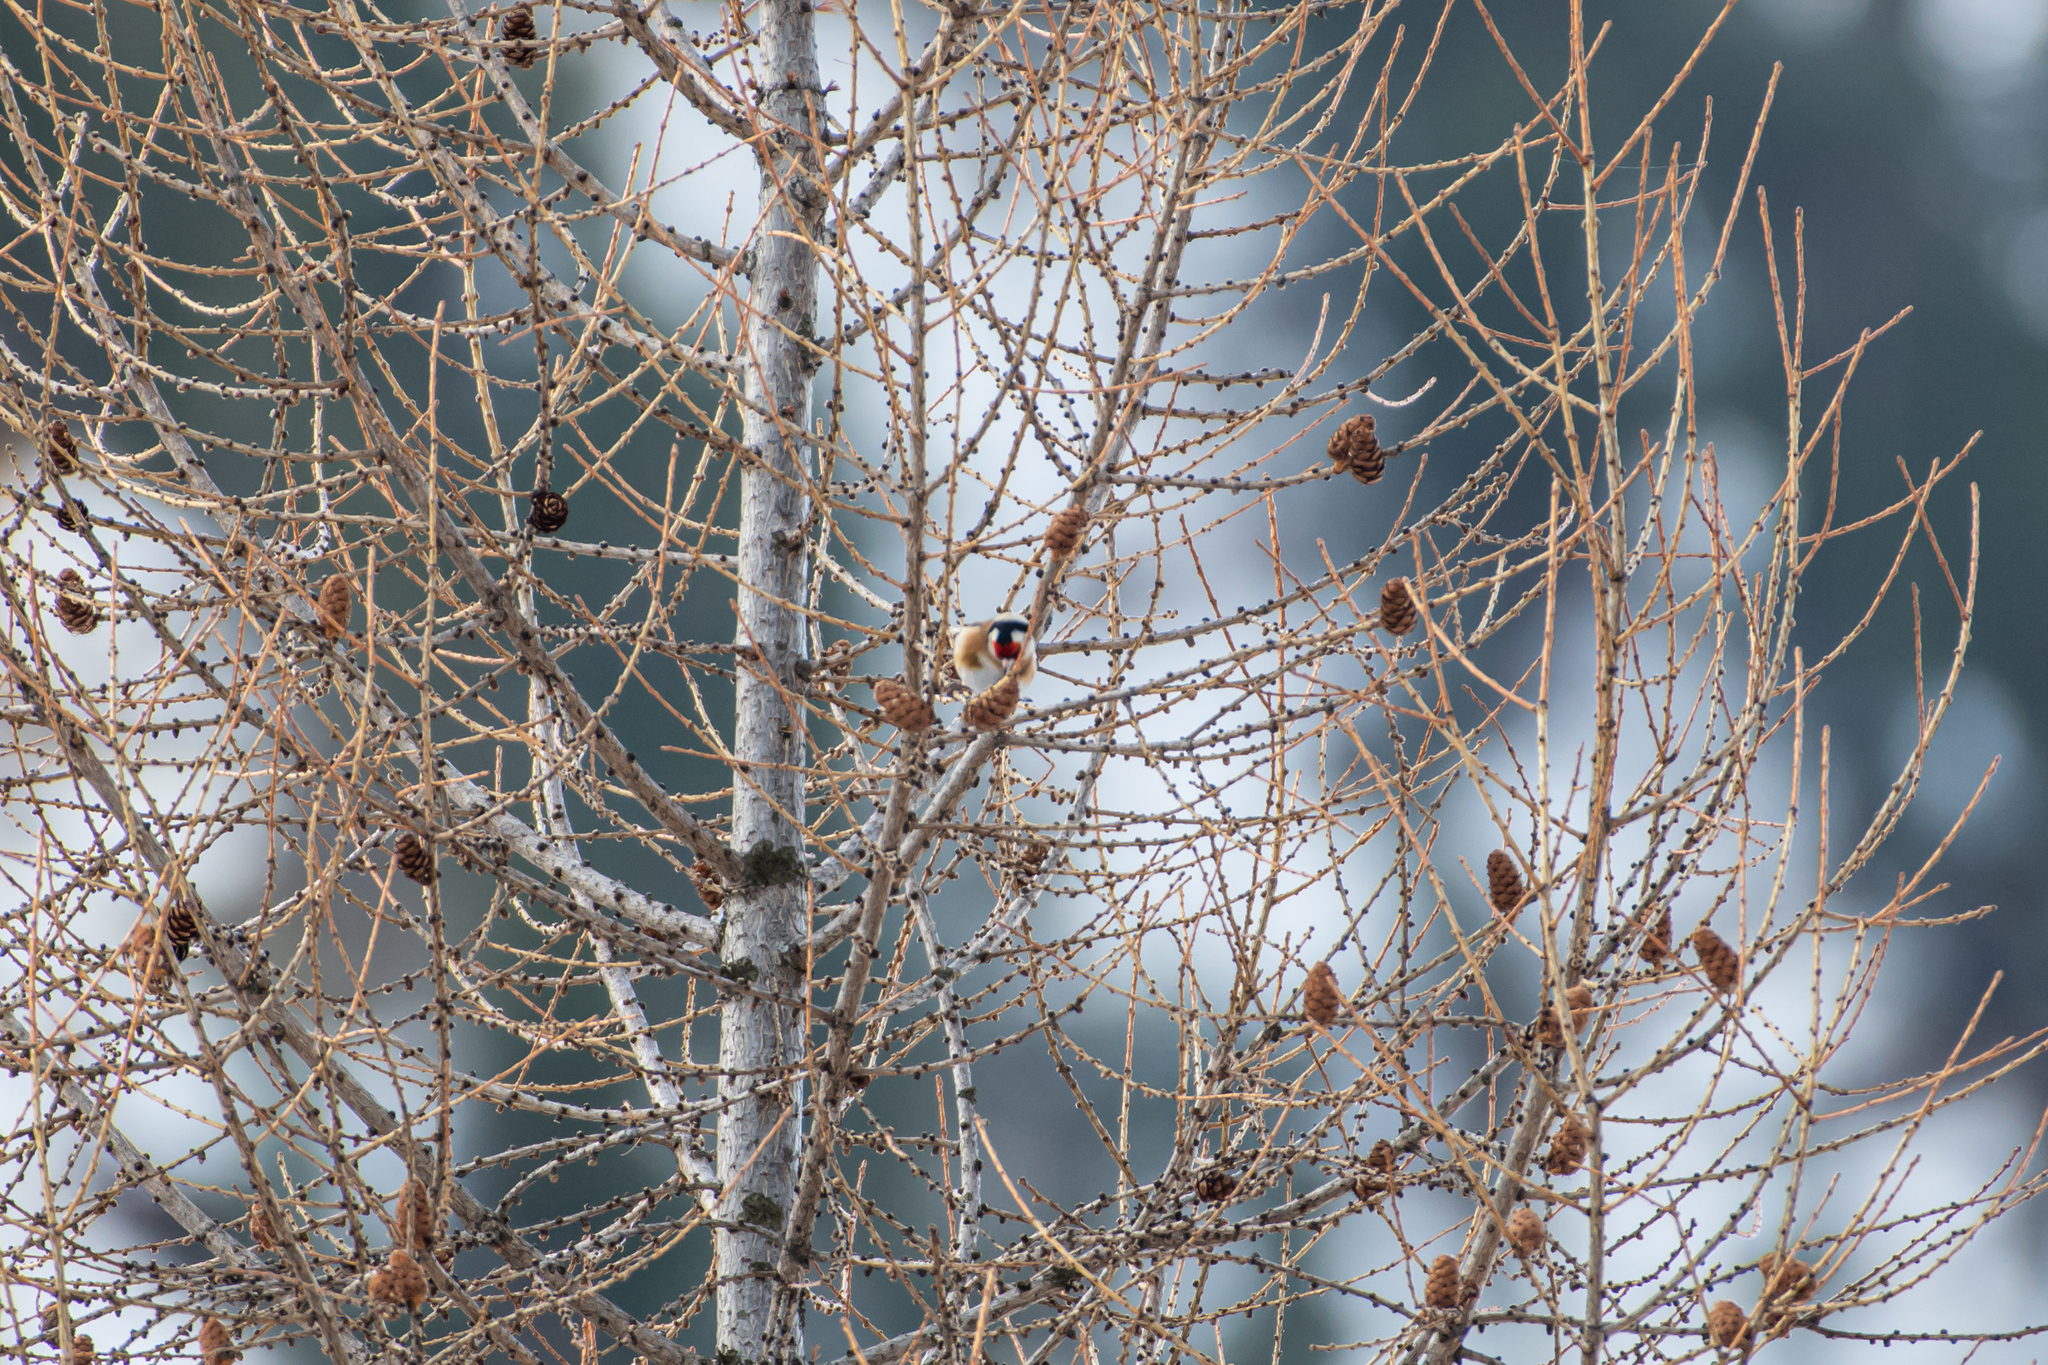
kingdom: Animalia
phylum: Chordata
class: Aves
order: Passeriformes
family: Fringillidae
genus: Carduelis
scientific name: Carduelis carduelis
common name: European goldfinch
